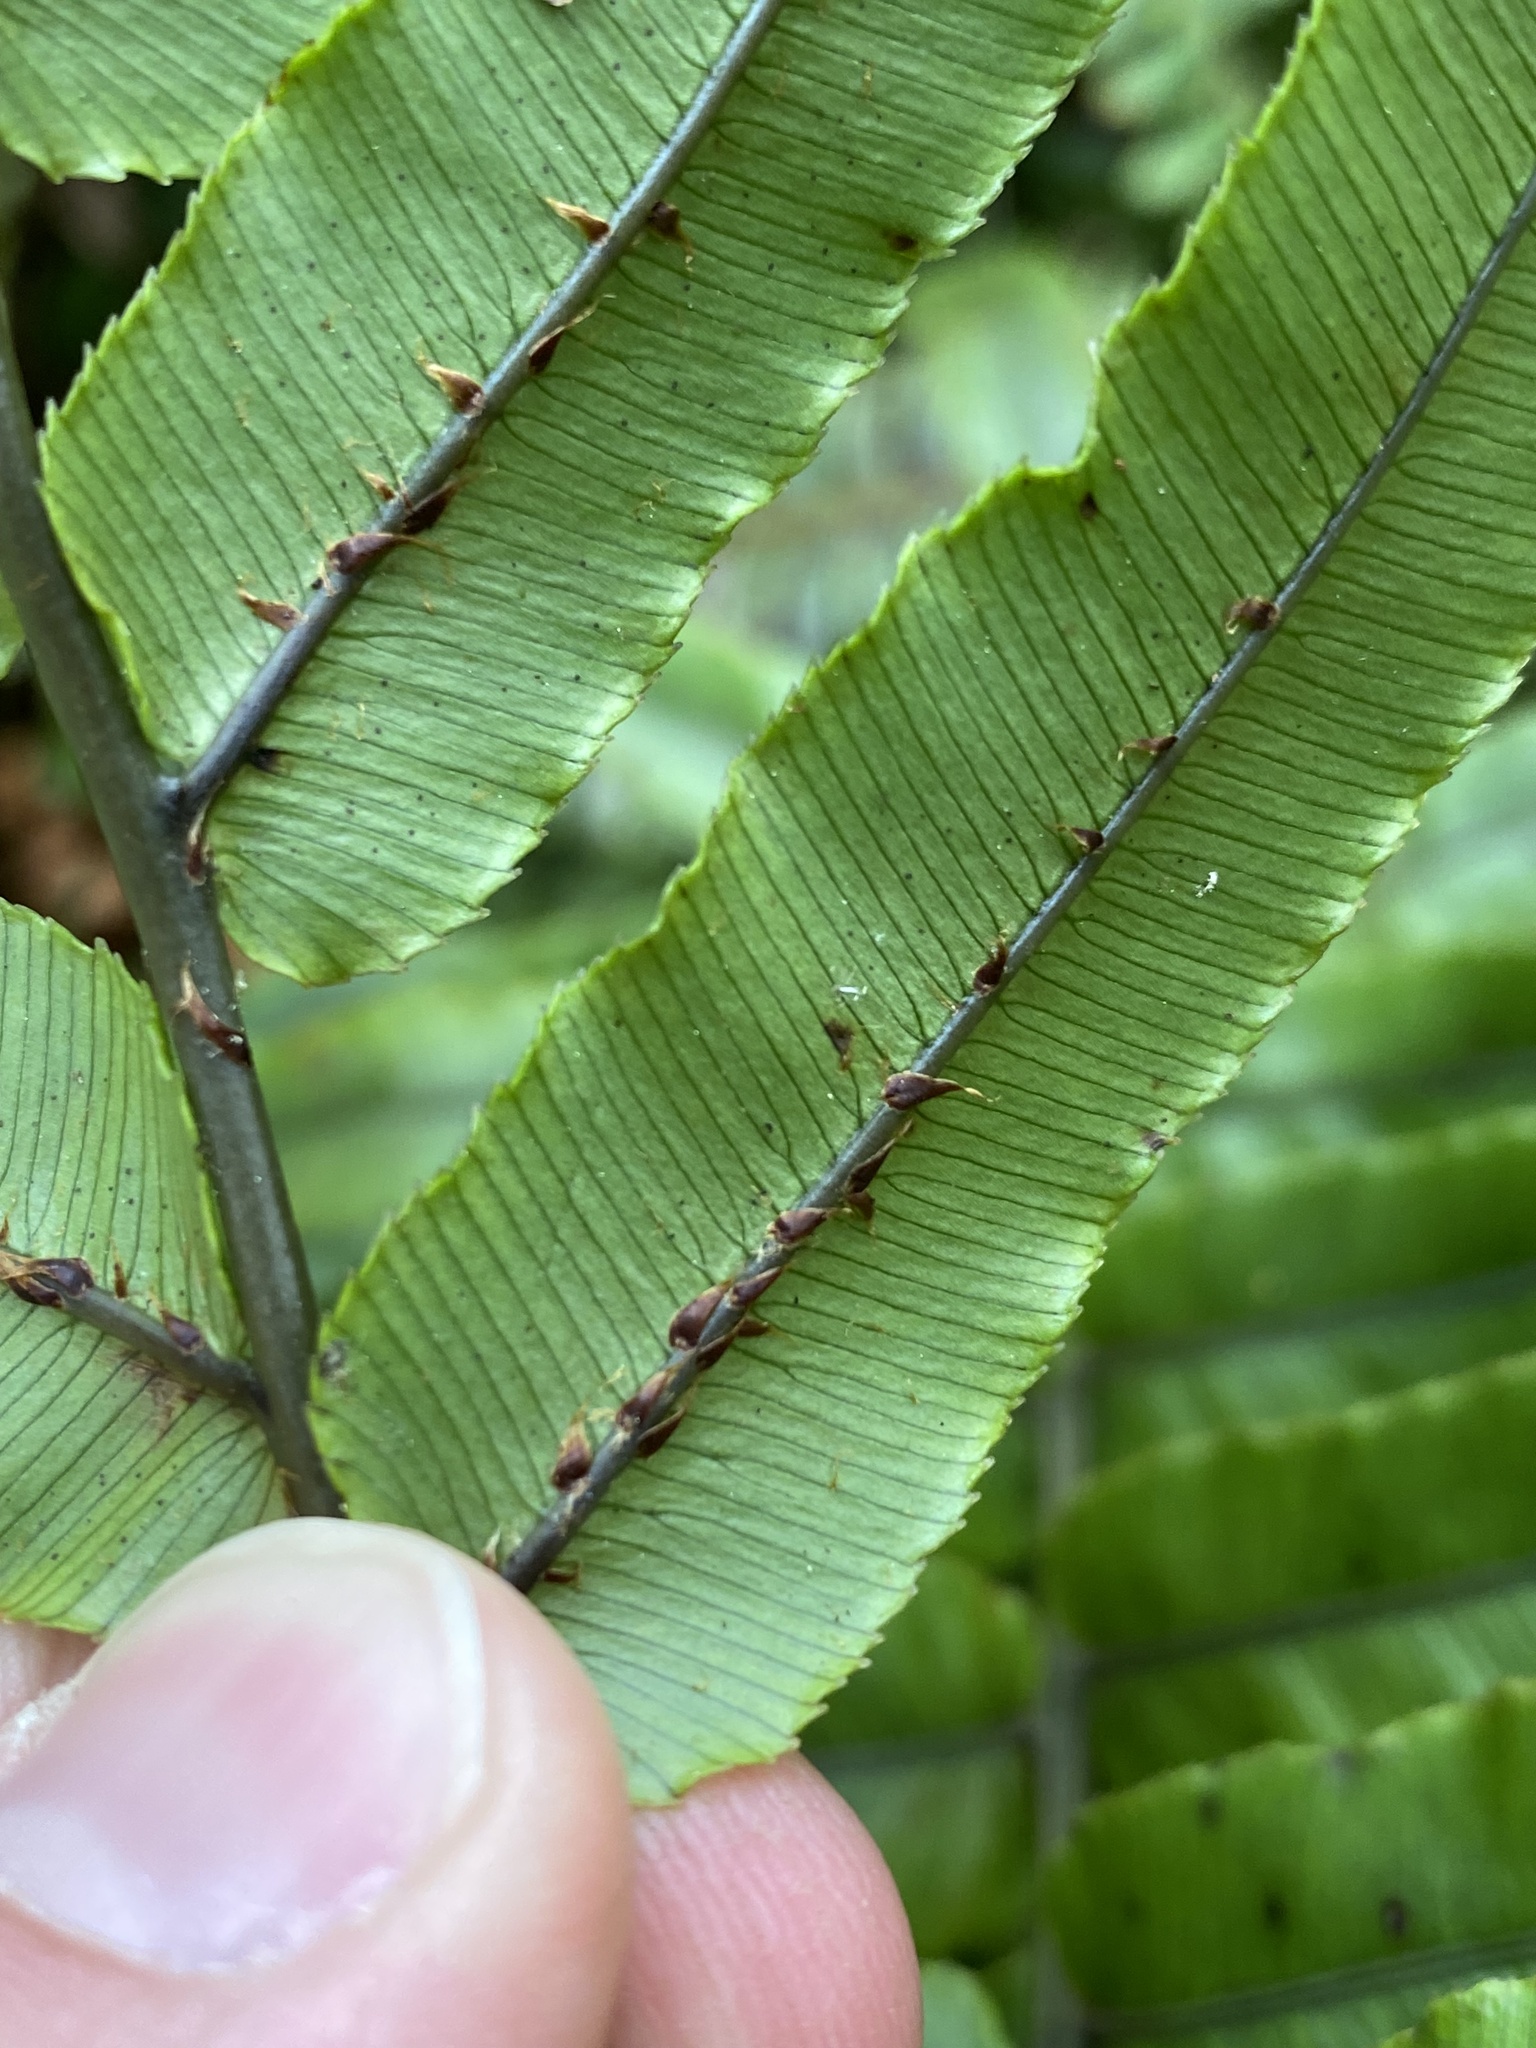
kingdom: Plantae
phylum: Tracheophyta
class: Polypodiopsida
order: Polypodiales
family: Blechnaceae
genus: Parablechnum
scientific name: Parablechnum novae-zelandiae
